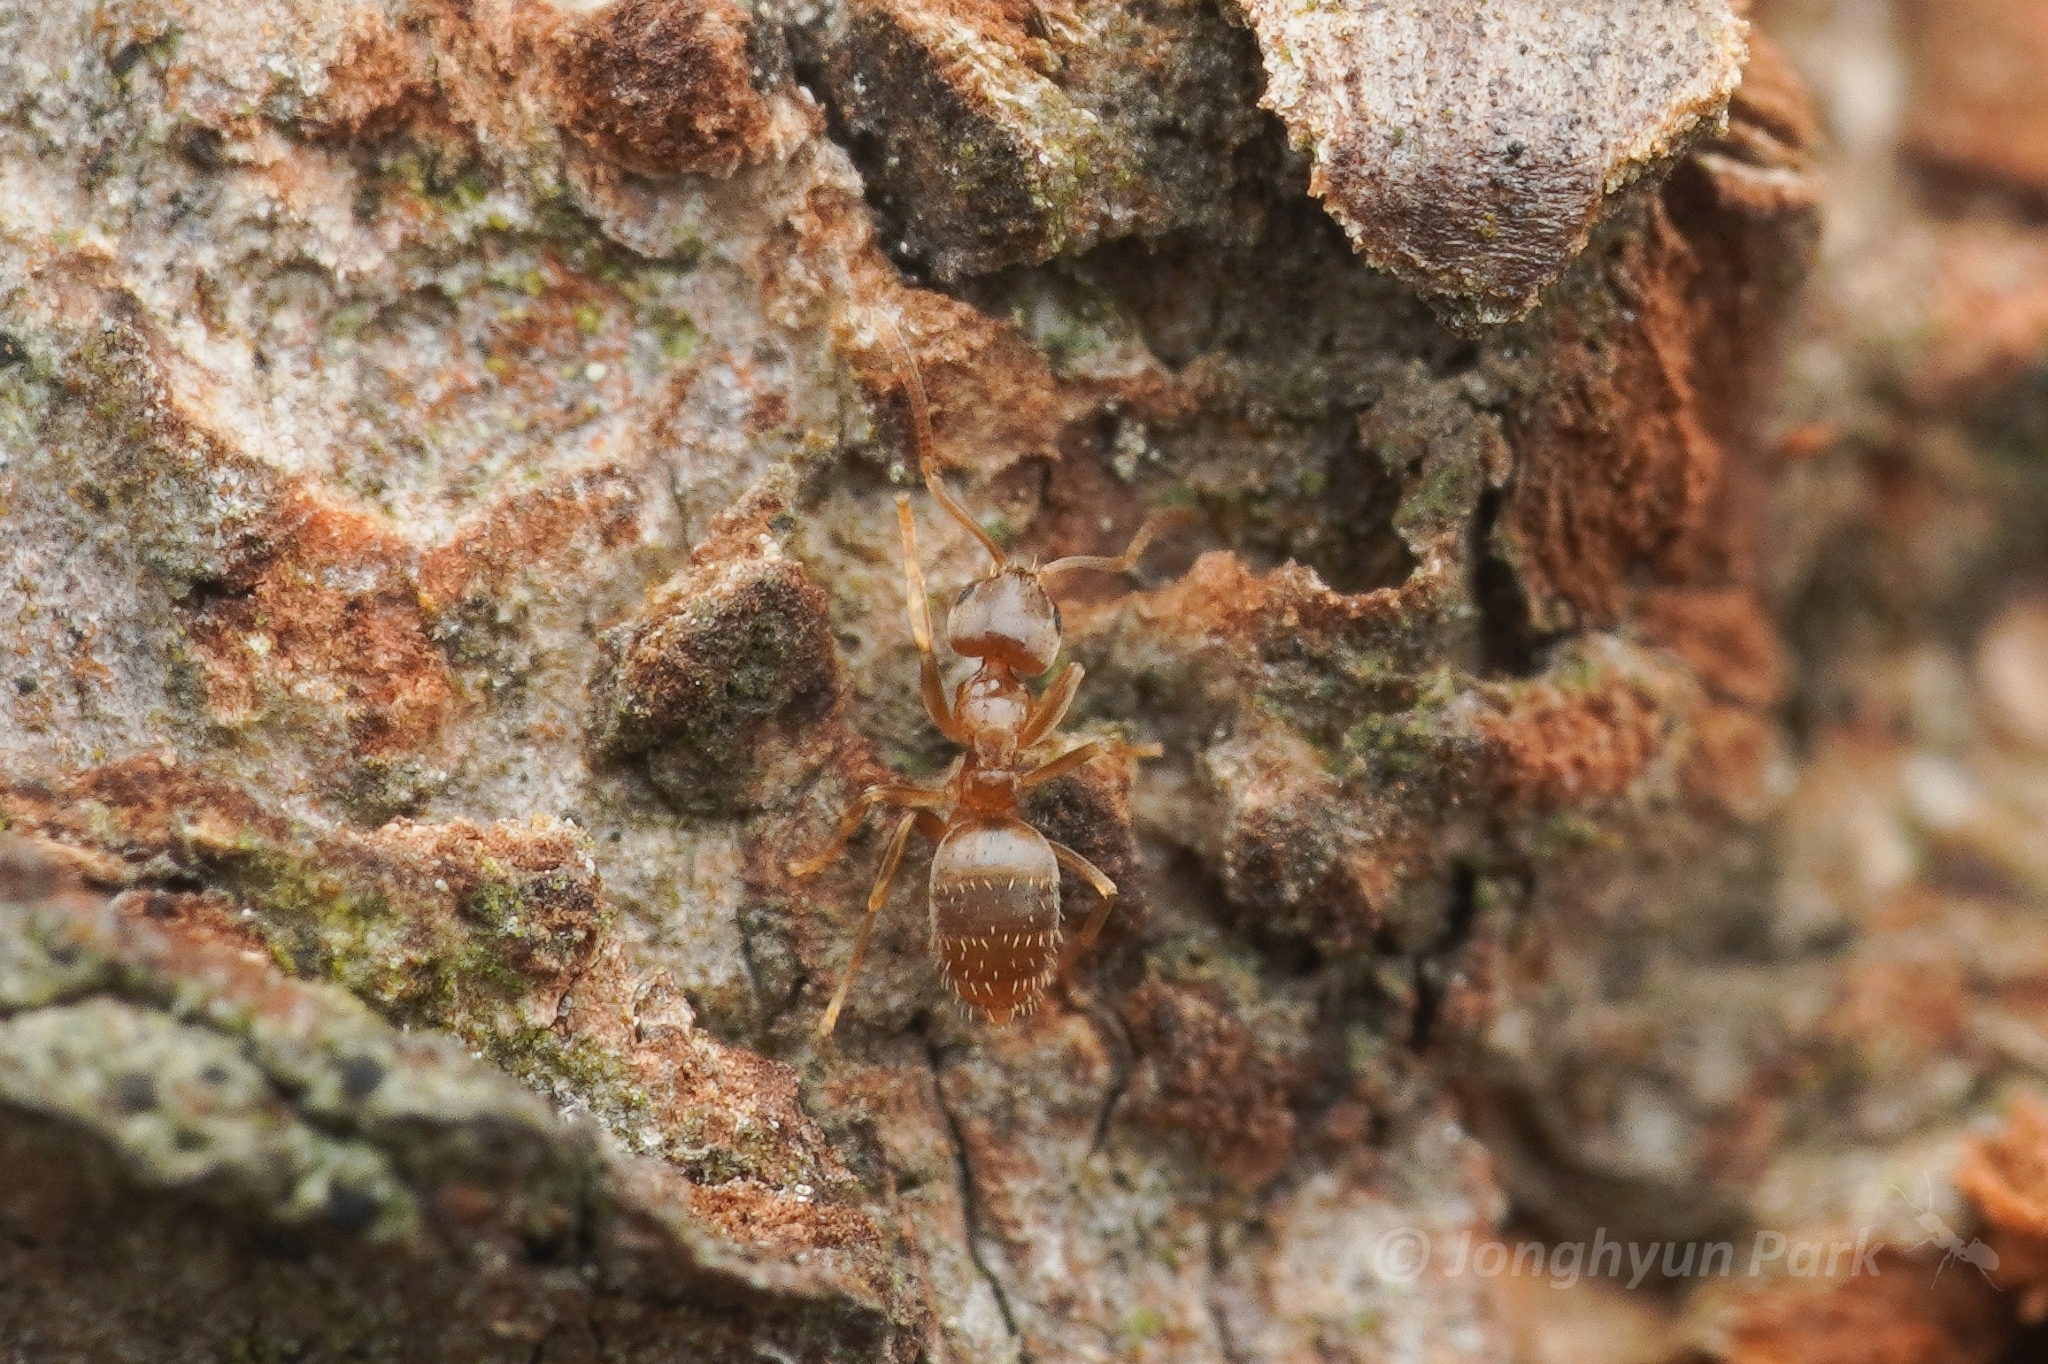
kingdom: Animalia
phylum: Arthropoda
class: Insecta
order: Hymenoptera
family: Formicidae
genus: Paraparatrechina
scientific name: Paraparatrechina
